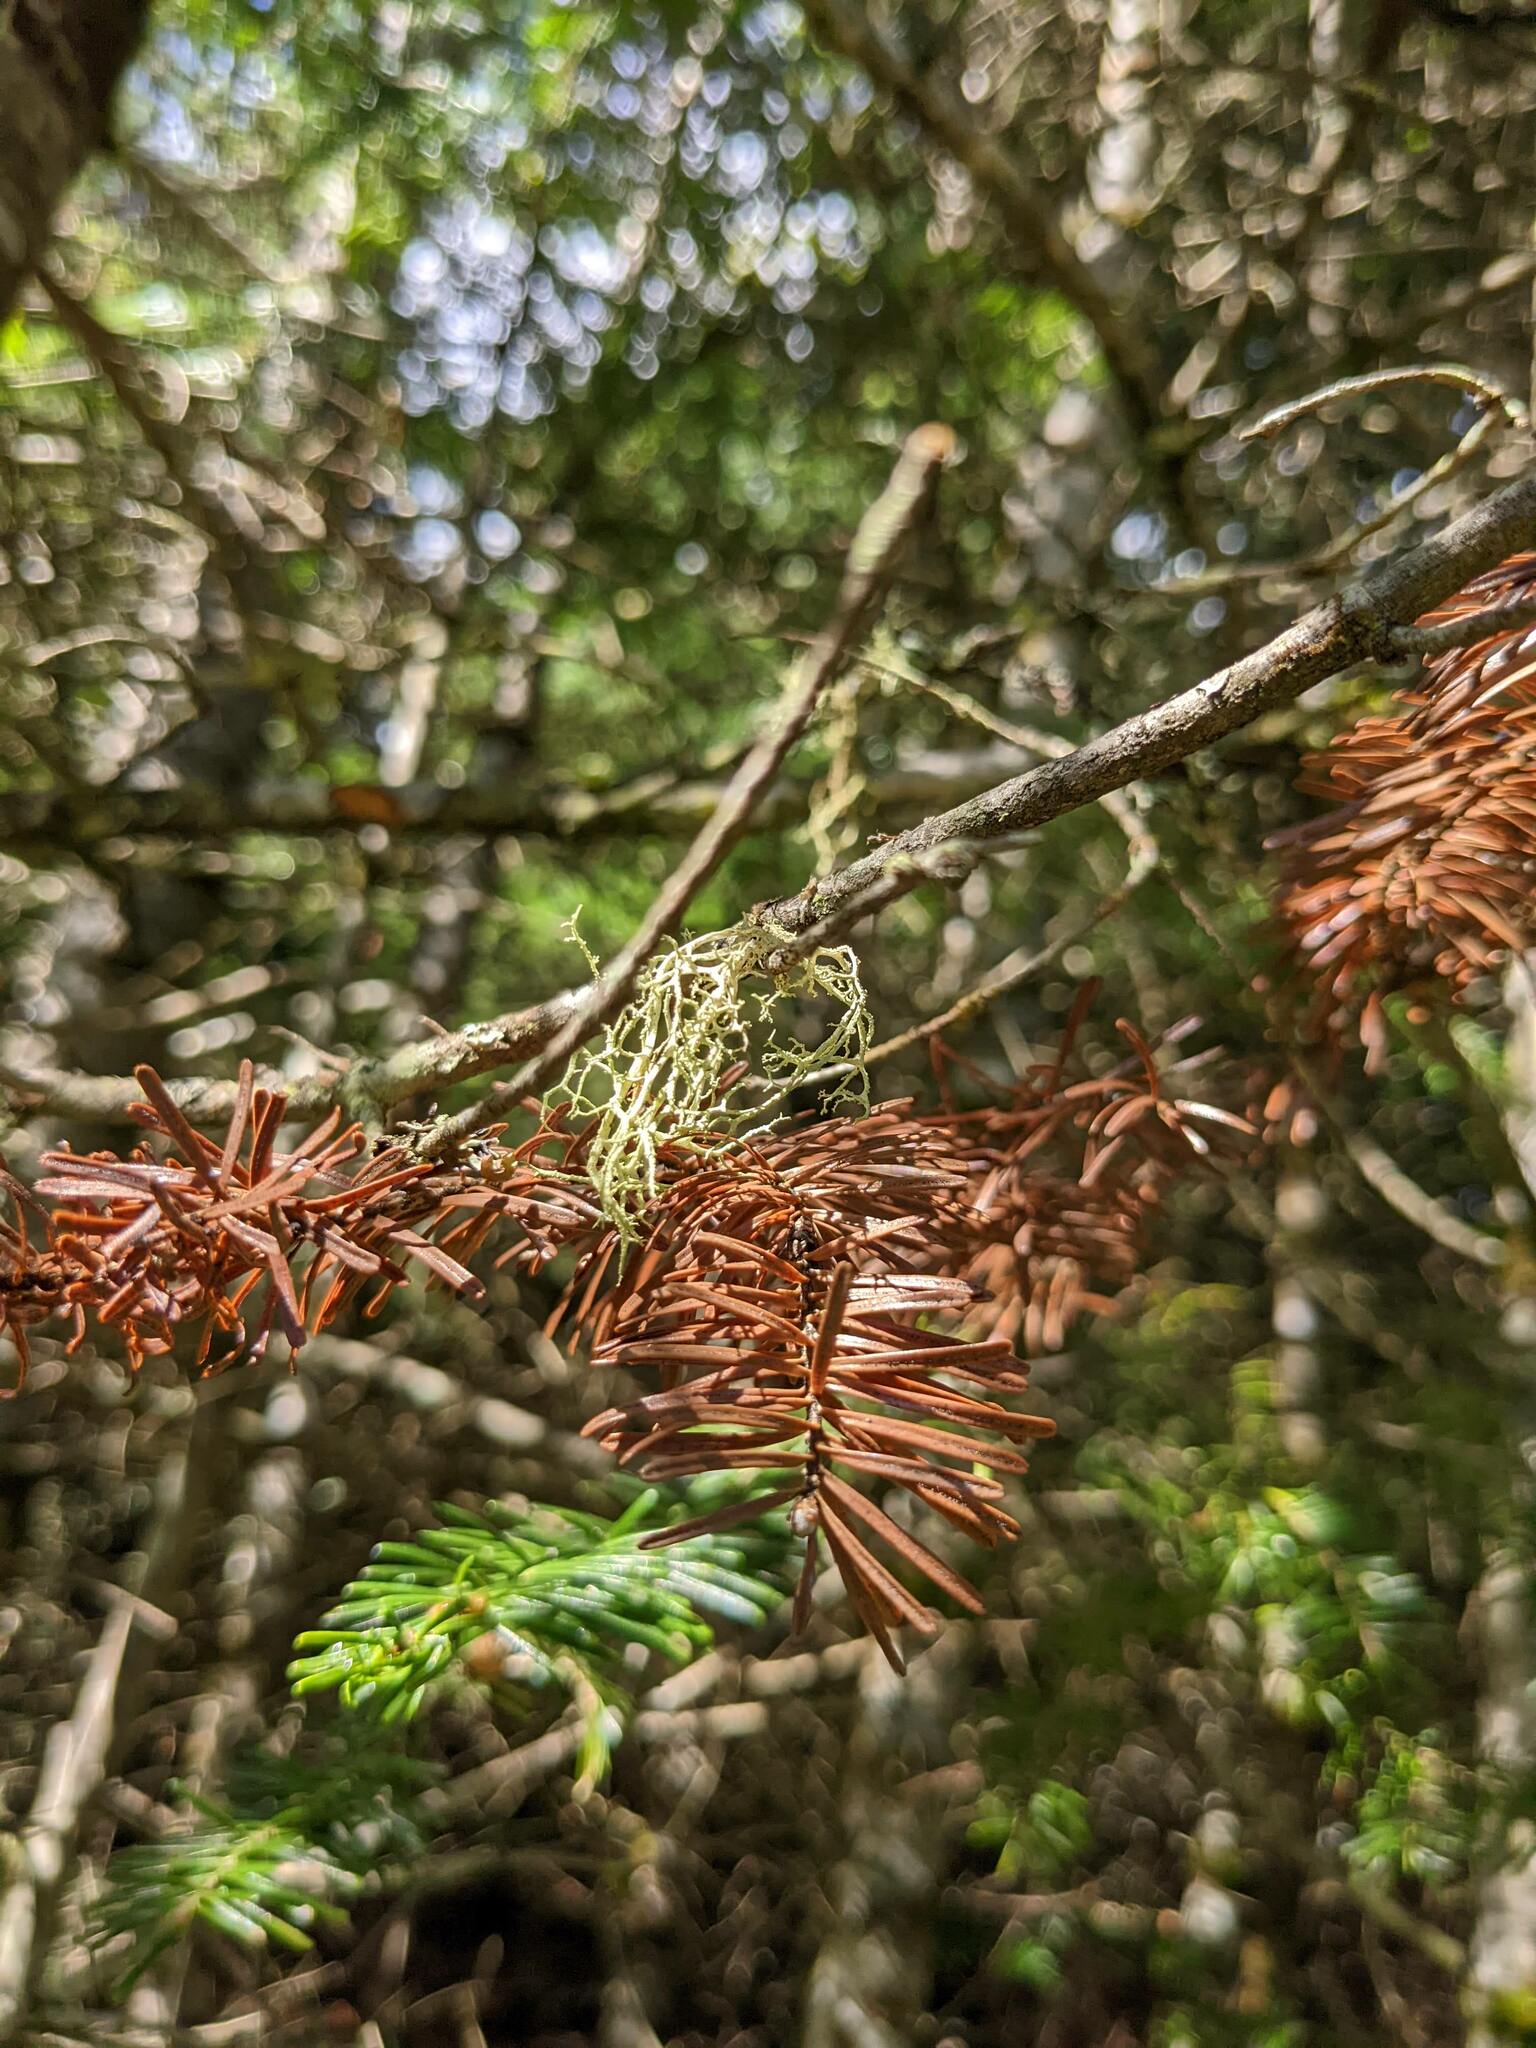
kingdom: Plantae
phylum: Tracheophyta
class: Pinopsida
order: Pinales
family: Pinaceae
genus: Abies
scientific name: Abies balsamea
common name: Balsam fir
